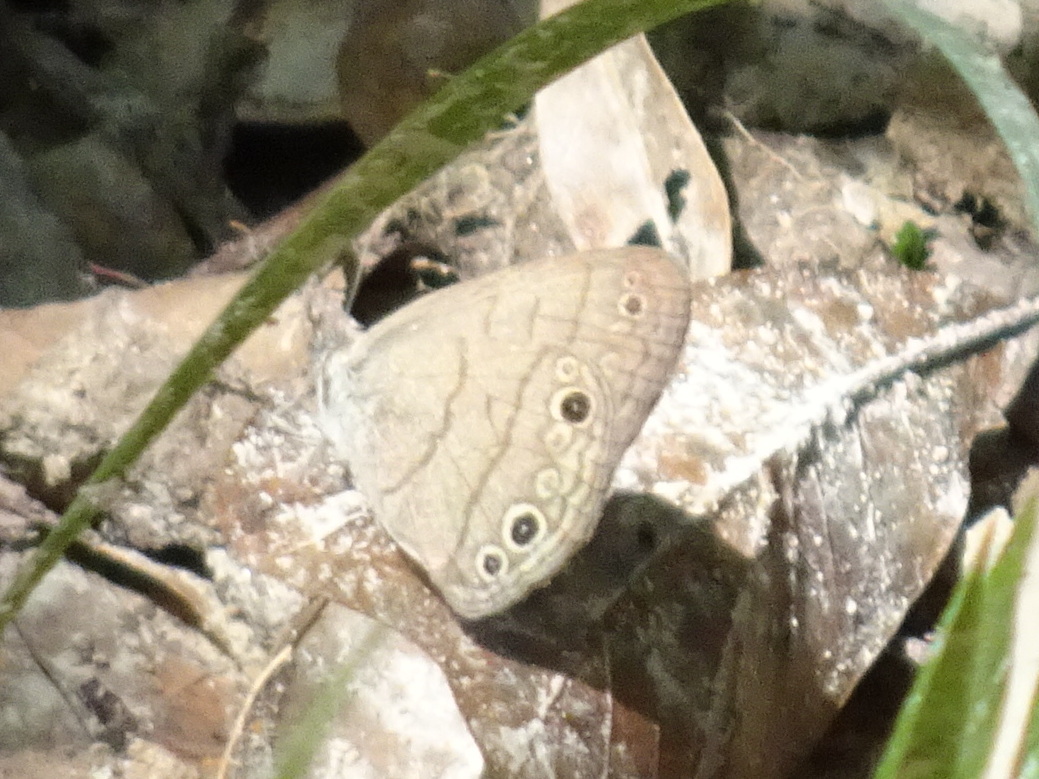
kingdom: Animalia
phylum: Arthropoda
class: Insecta
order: Lepidoptera
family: Nymphalidae
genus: Hermeuptychia
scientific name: Hermeuptychia hermes
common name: Hermes satyr
